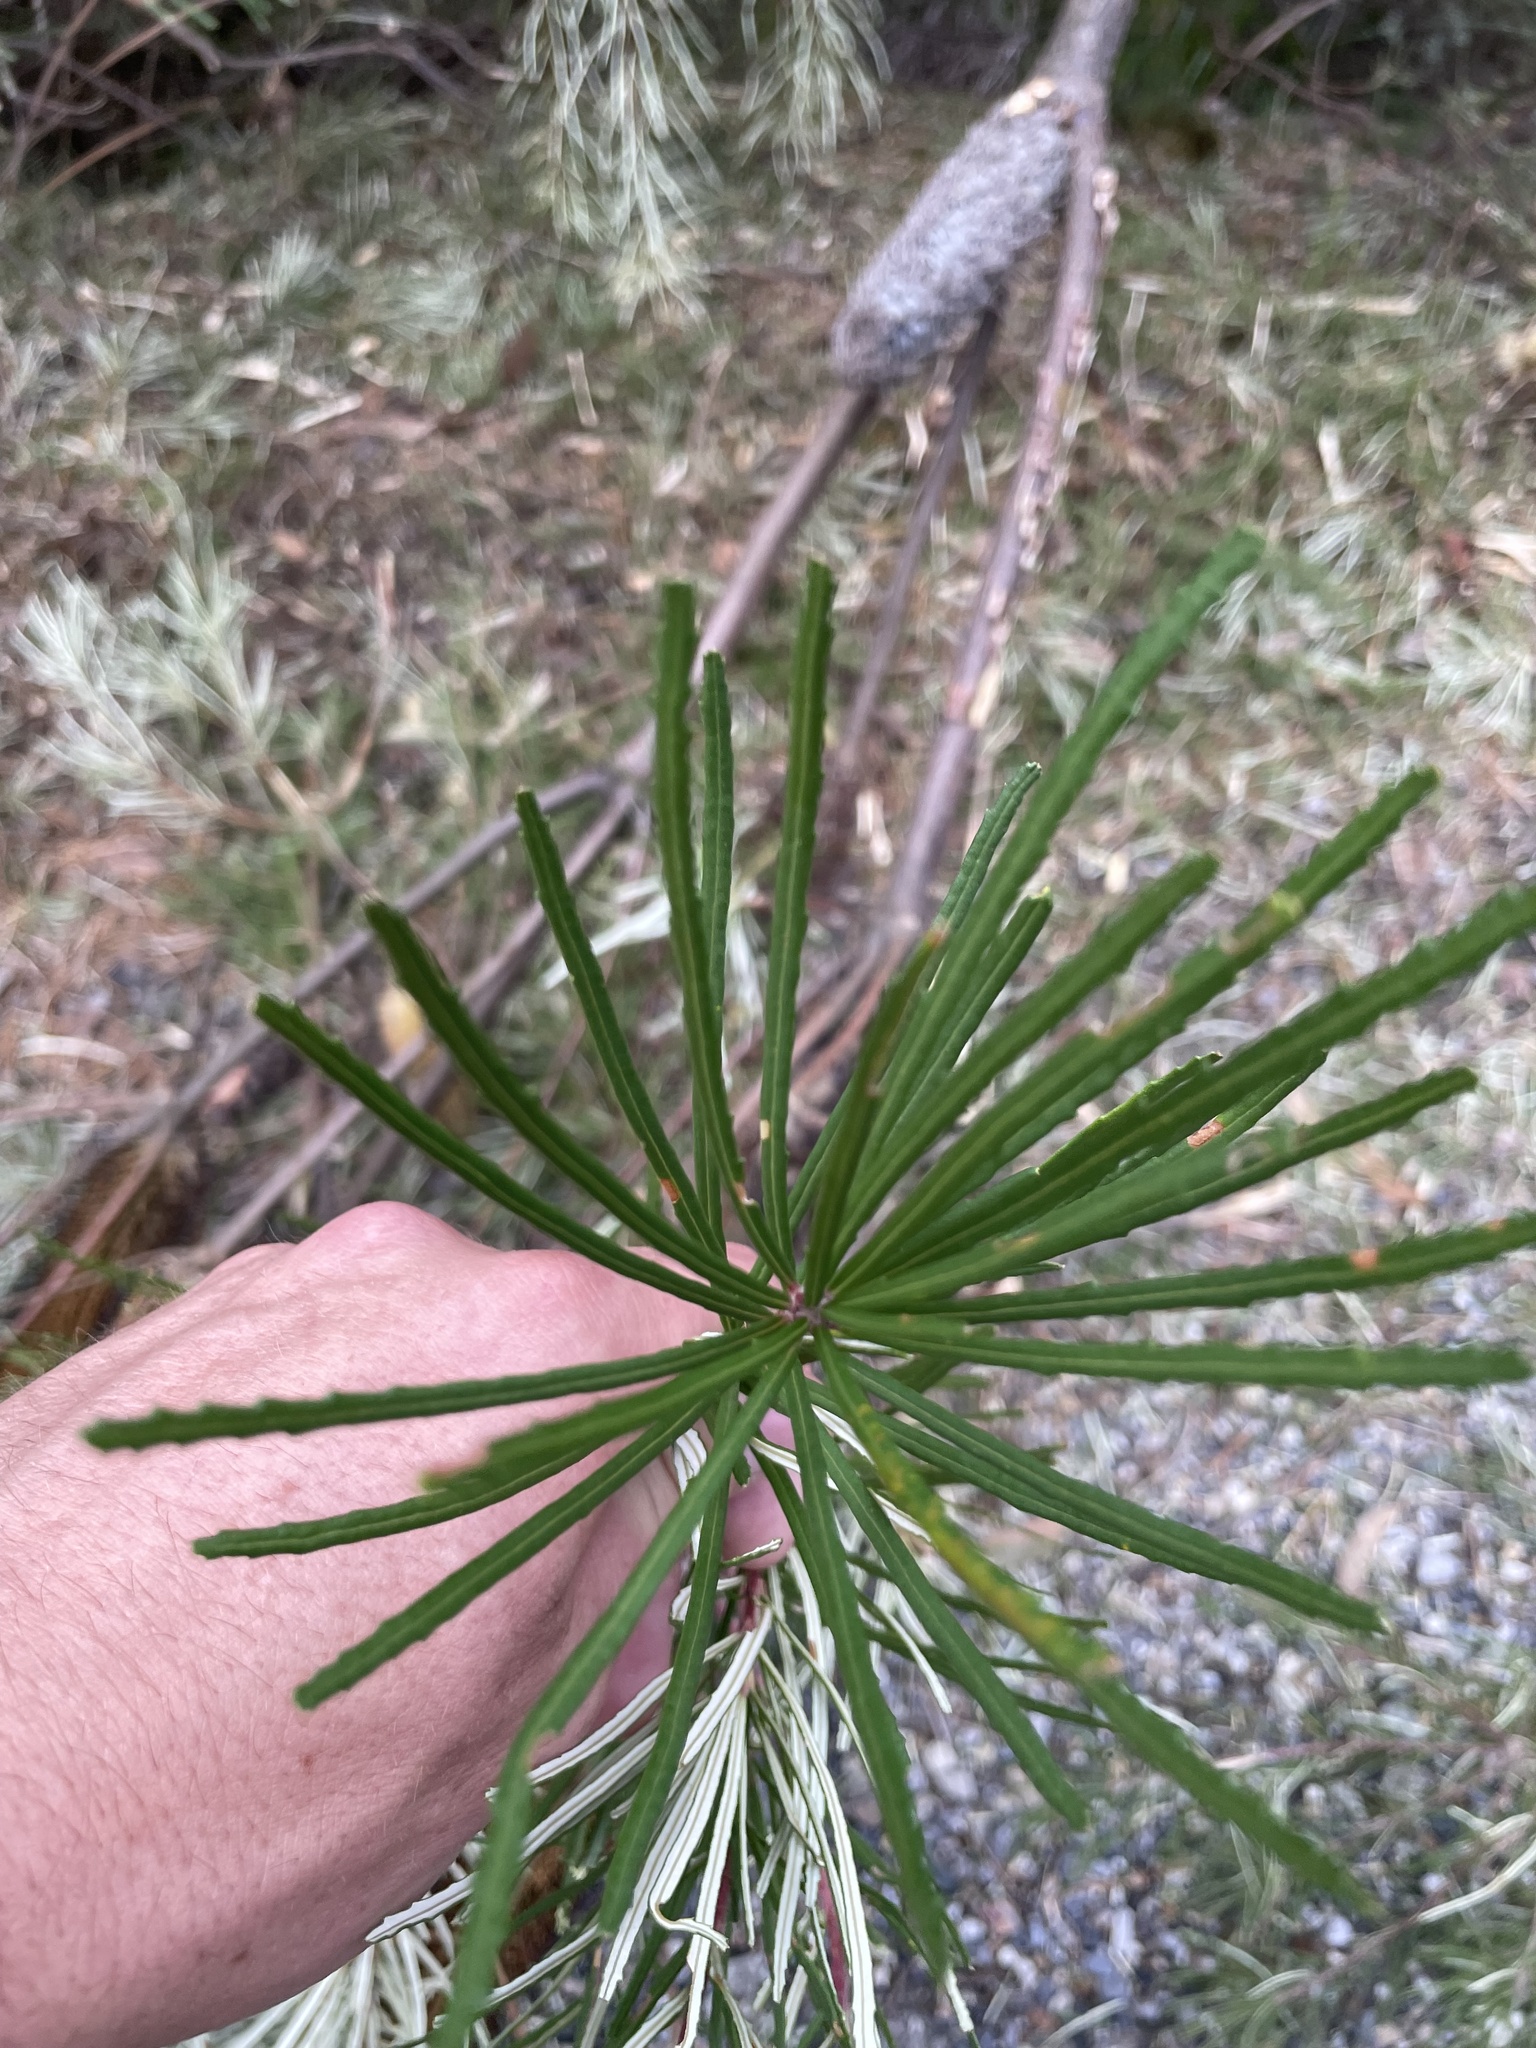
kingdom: Plantae
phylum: Tracheophyta
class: Magnoliopsida
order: Proteales
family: Proteaceae
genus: Banksia
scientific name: Banksia spinulosa
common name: Hairpin banksia
